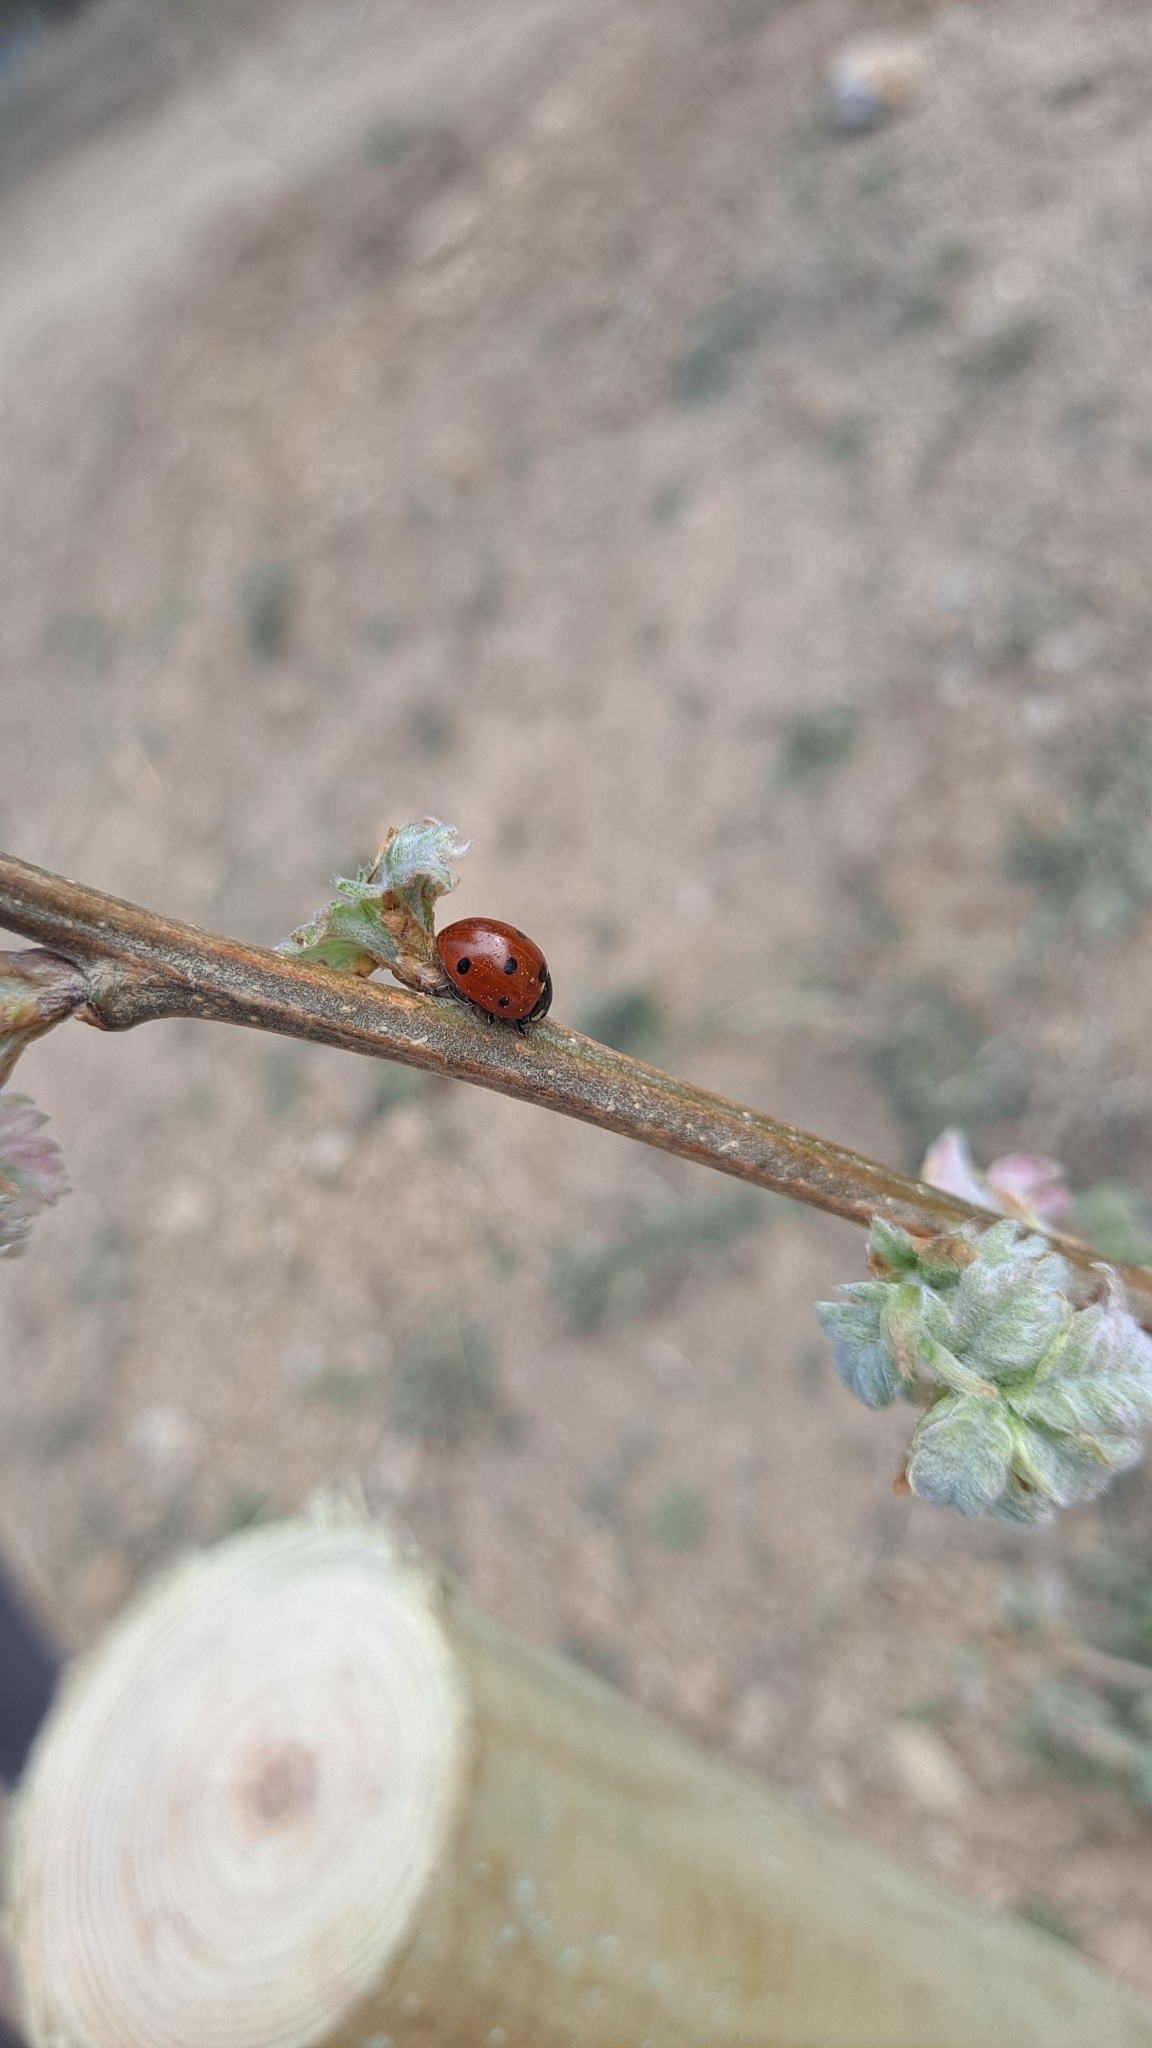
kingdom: Animalia
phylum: Arthropoda
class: Insecta
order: Coleoptera
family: Coccinellidae
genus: Coccinella
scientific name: Coccinella septempunctata
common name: Sevenspotted lady beetle
